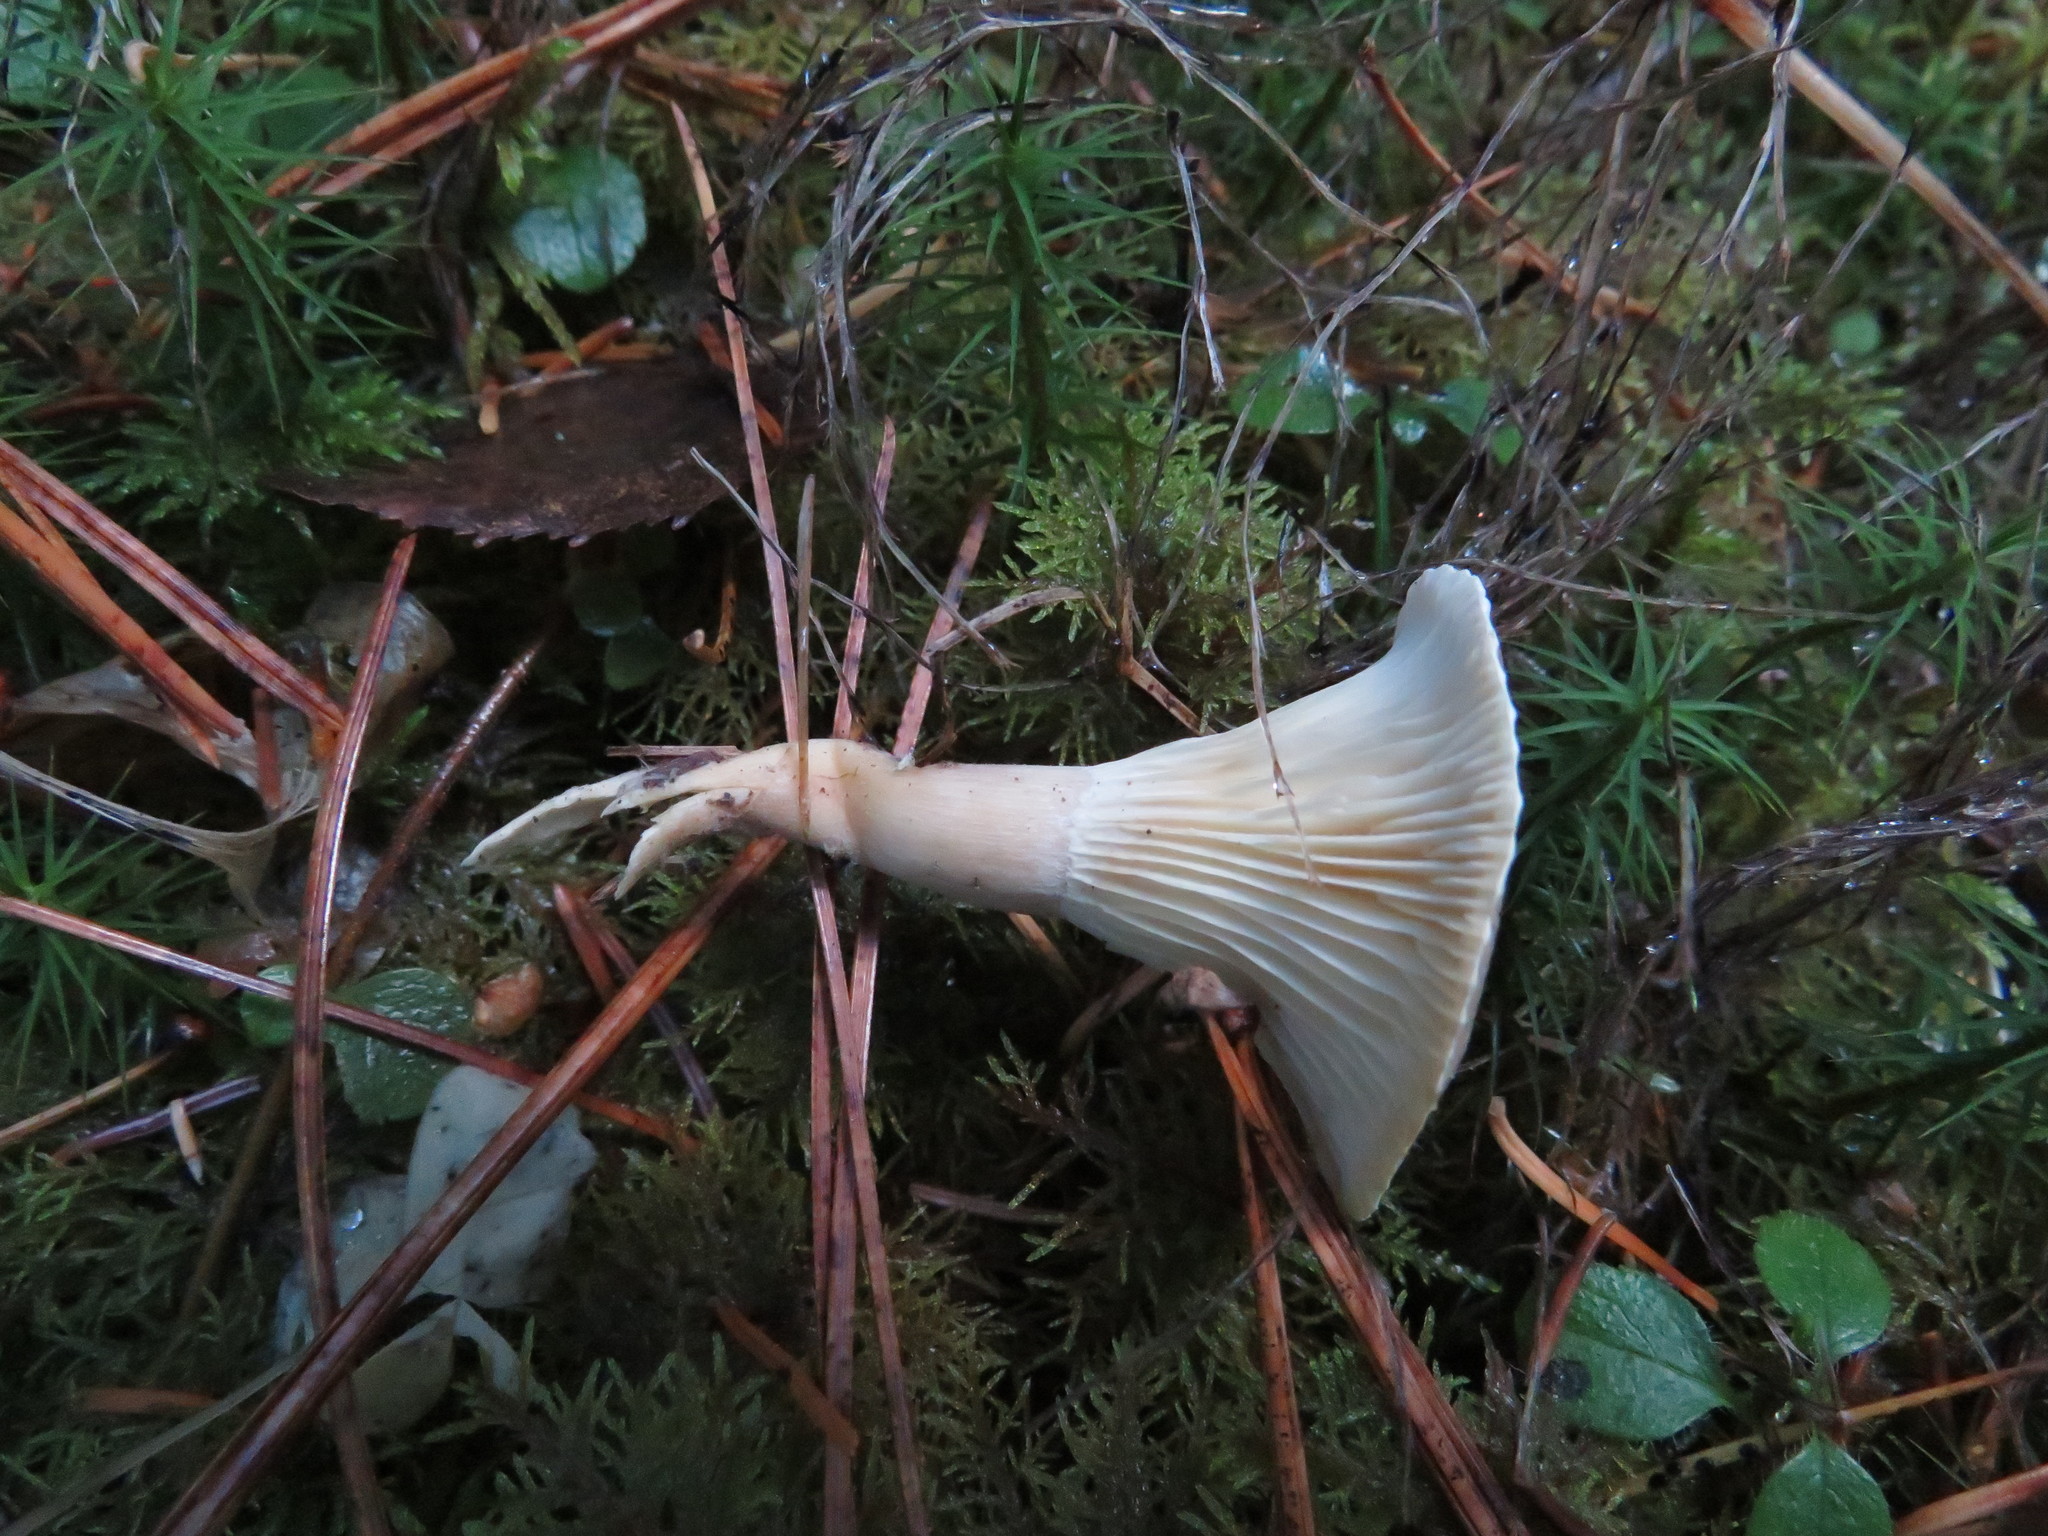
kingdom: Fungi
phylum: Basidiomycota
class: Agaricomycetes
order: Agaricales
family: Hygrophoraceae
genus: Ampulloclitocybe
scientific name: Ampulloclitocybe clavipes
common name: Club foot
